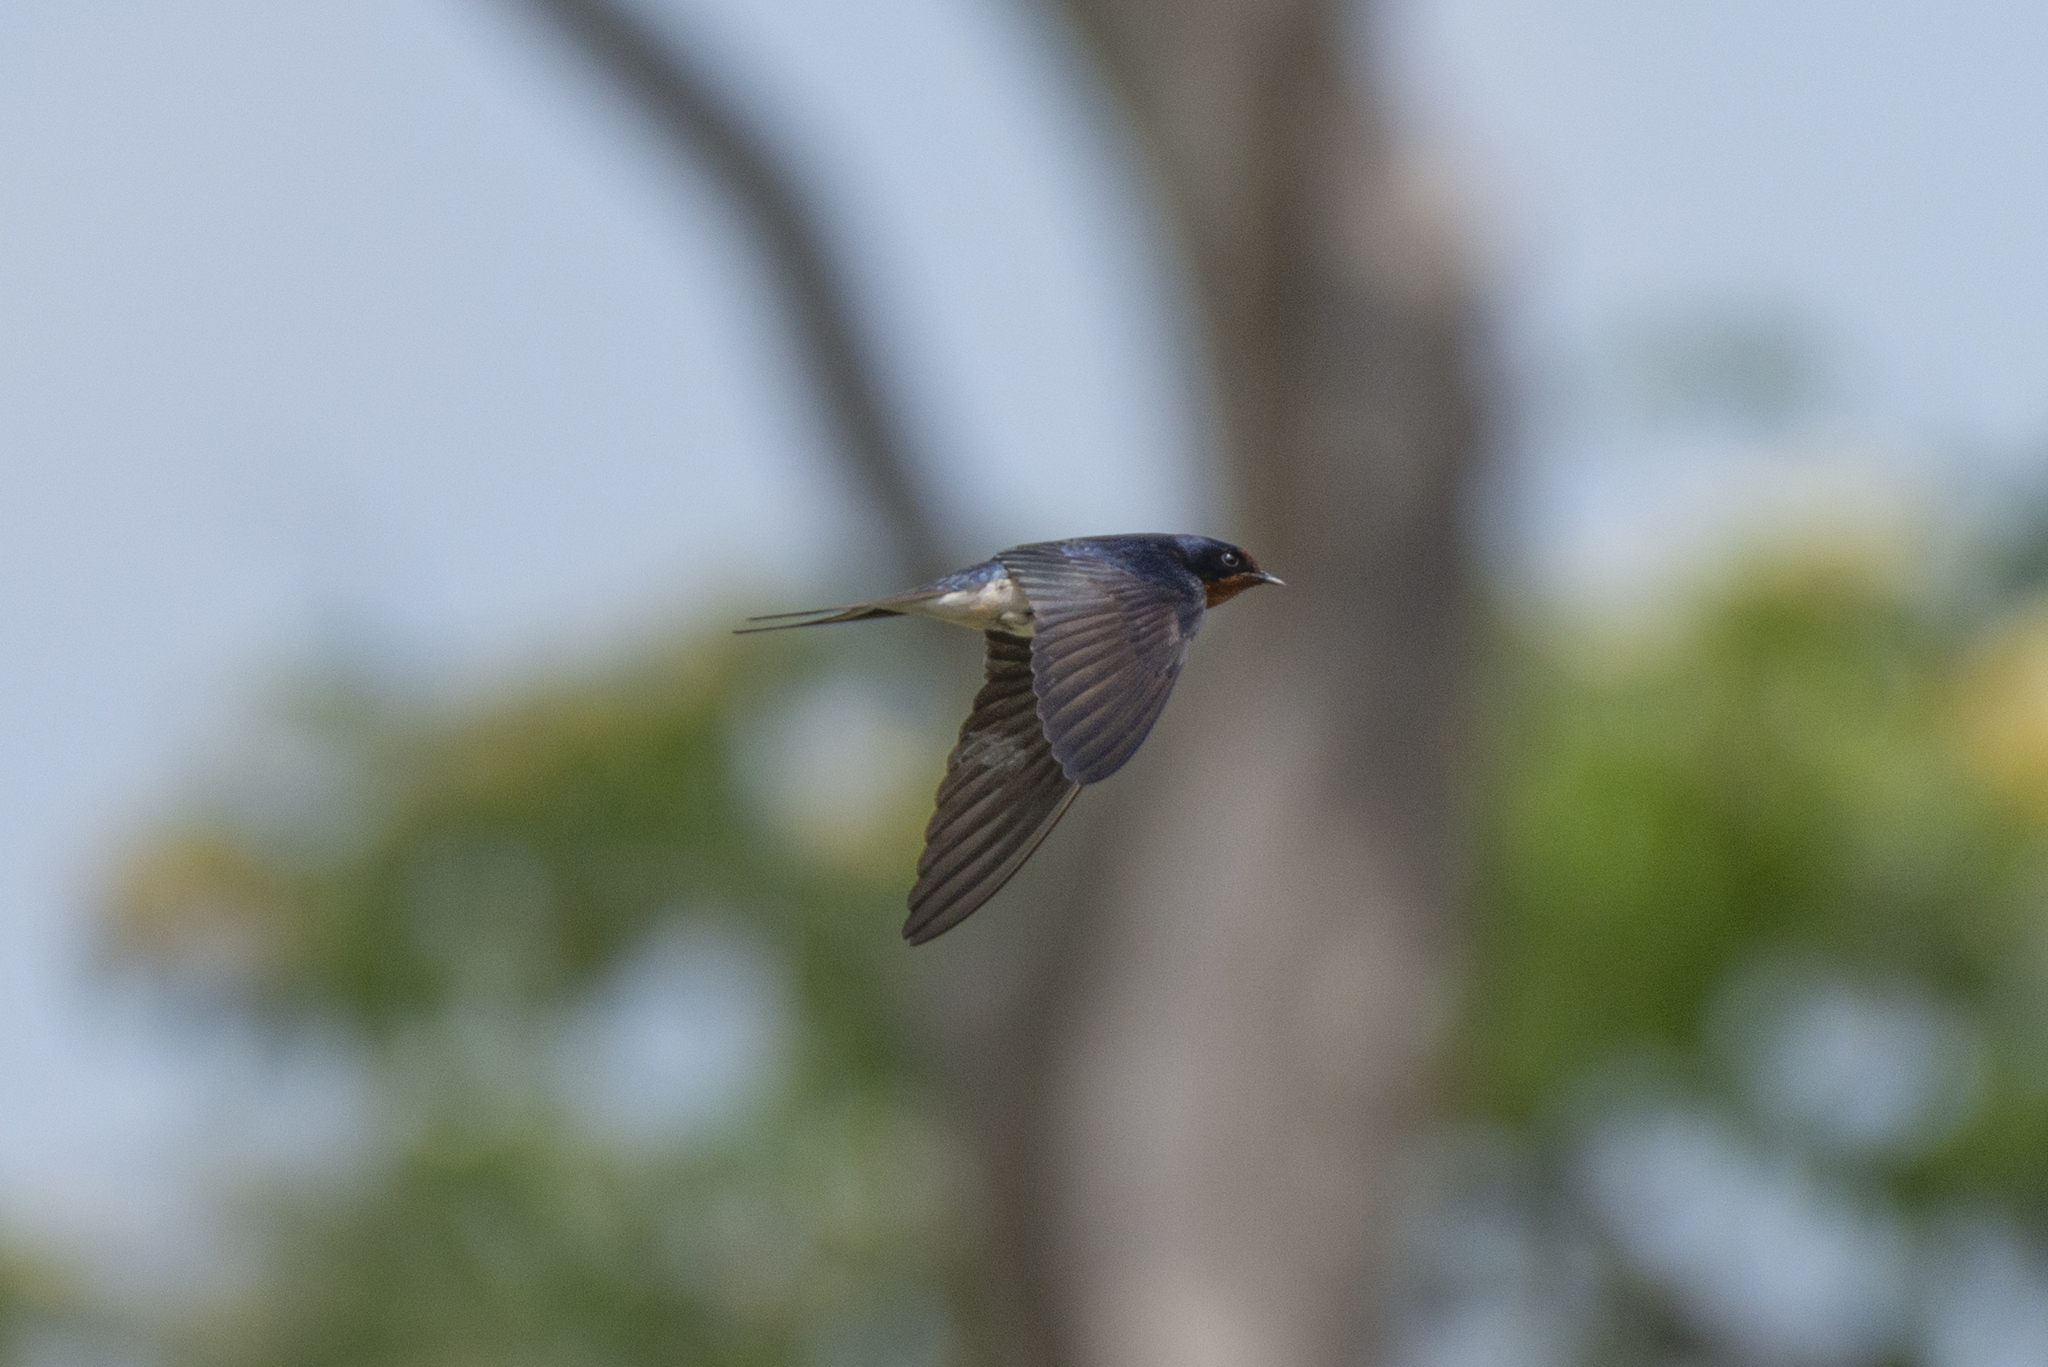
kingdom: Animalia
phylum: Chordata
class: Aves
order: Passeriformes
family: Hirundinidae
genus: Hirundo
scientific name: Hirundo rustica
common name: Barn swallow
